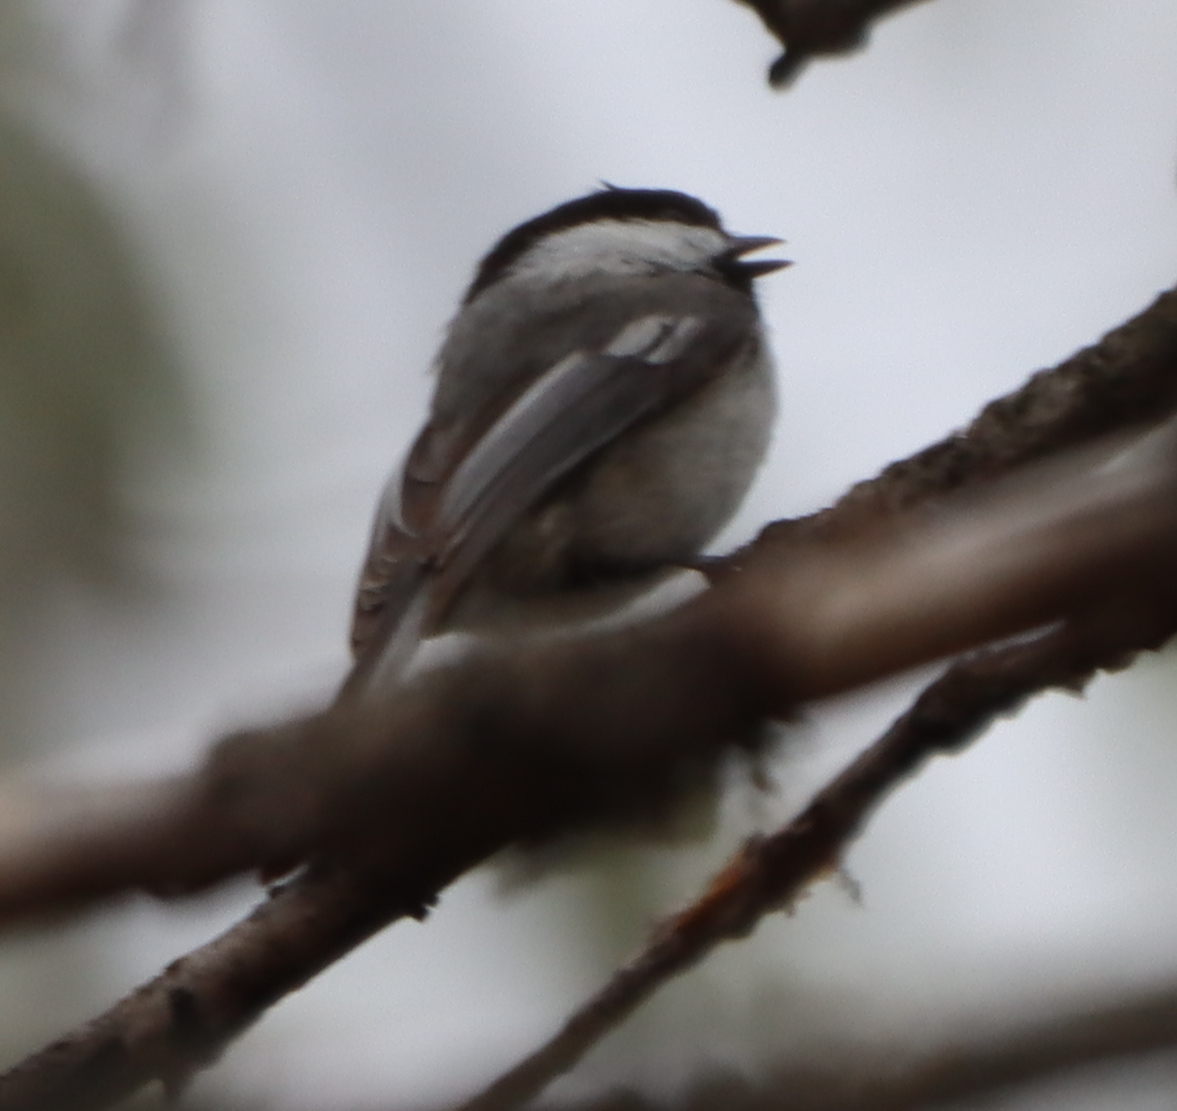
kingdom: Animalia
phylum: Chordata
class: Aves
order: Passeriformes
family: Paridae
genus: Poecile
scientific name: Poecile atricapillus
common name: Black-capped chickadee
